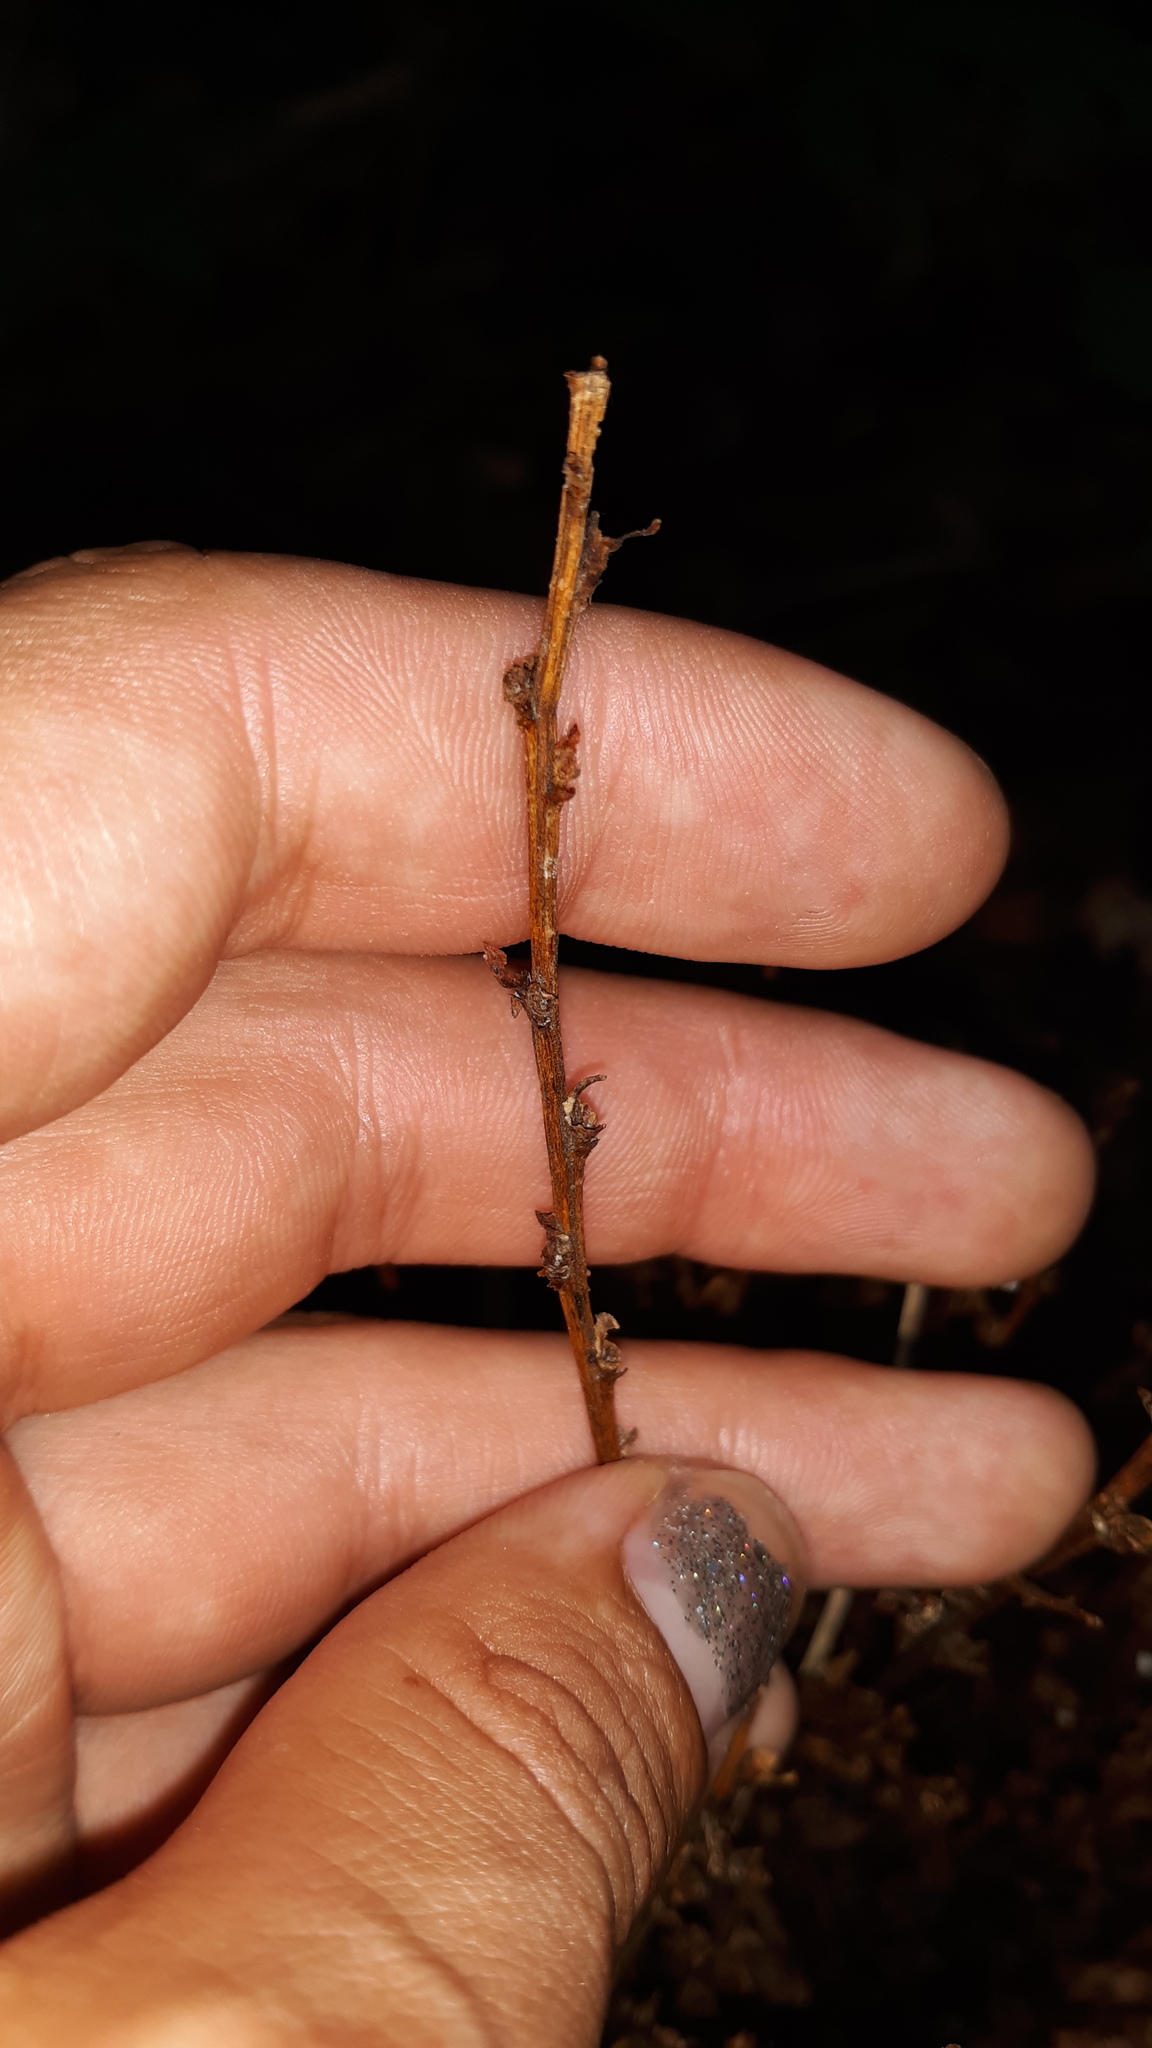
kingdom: Plantae
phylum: Tracheophyta
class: Magnoliopsida
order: Lamiales
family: Orobanchaceae
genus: Epifagus
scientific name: Epifagus virginiana
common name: Beechdrops
